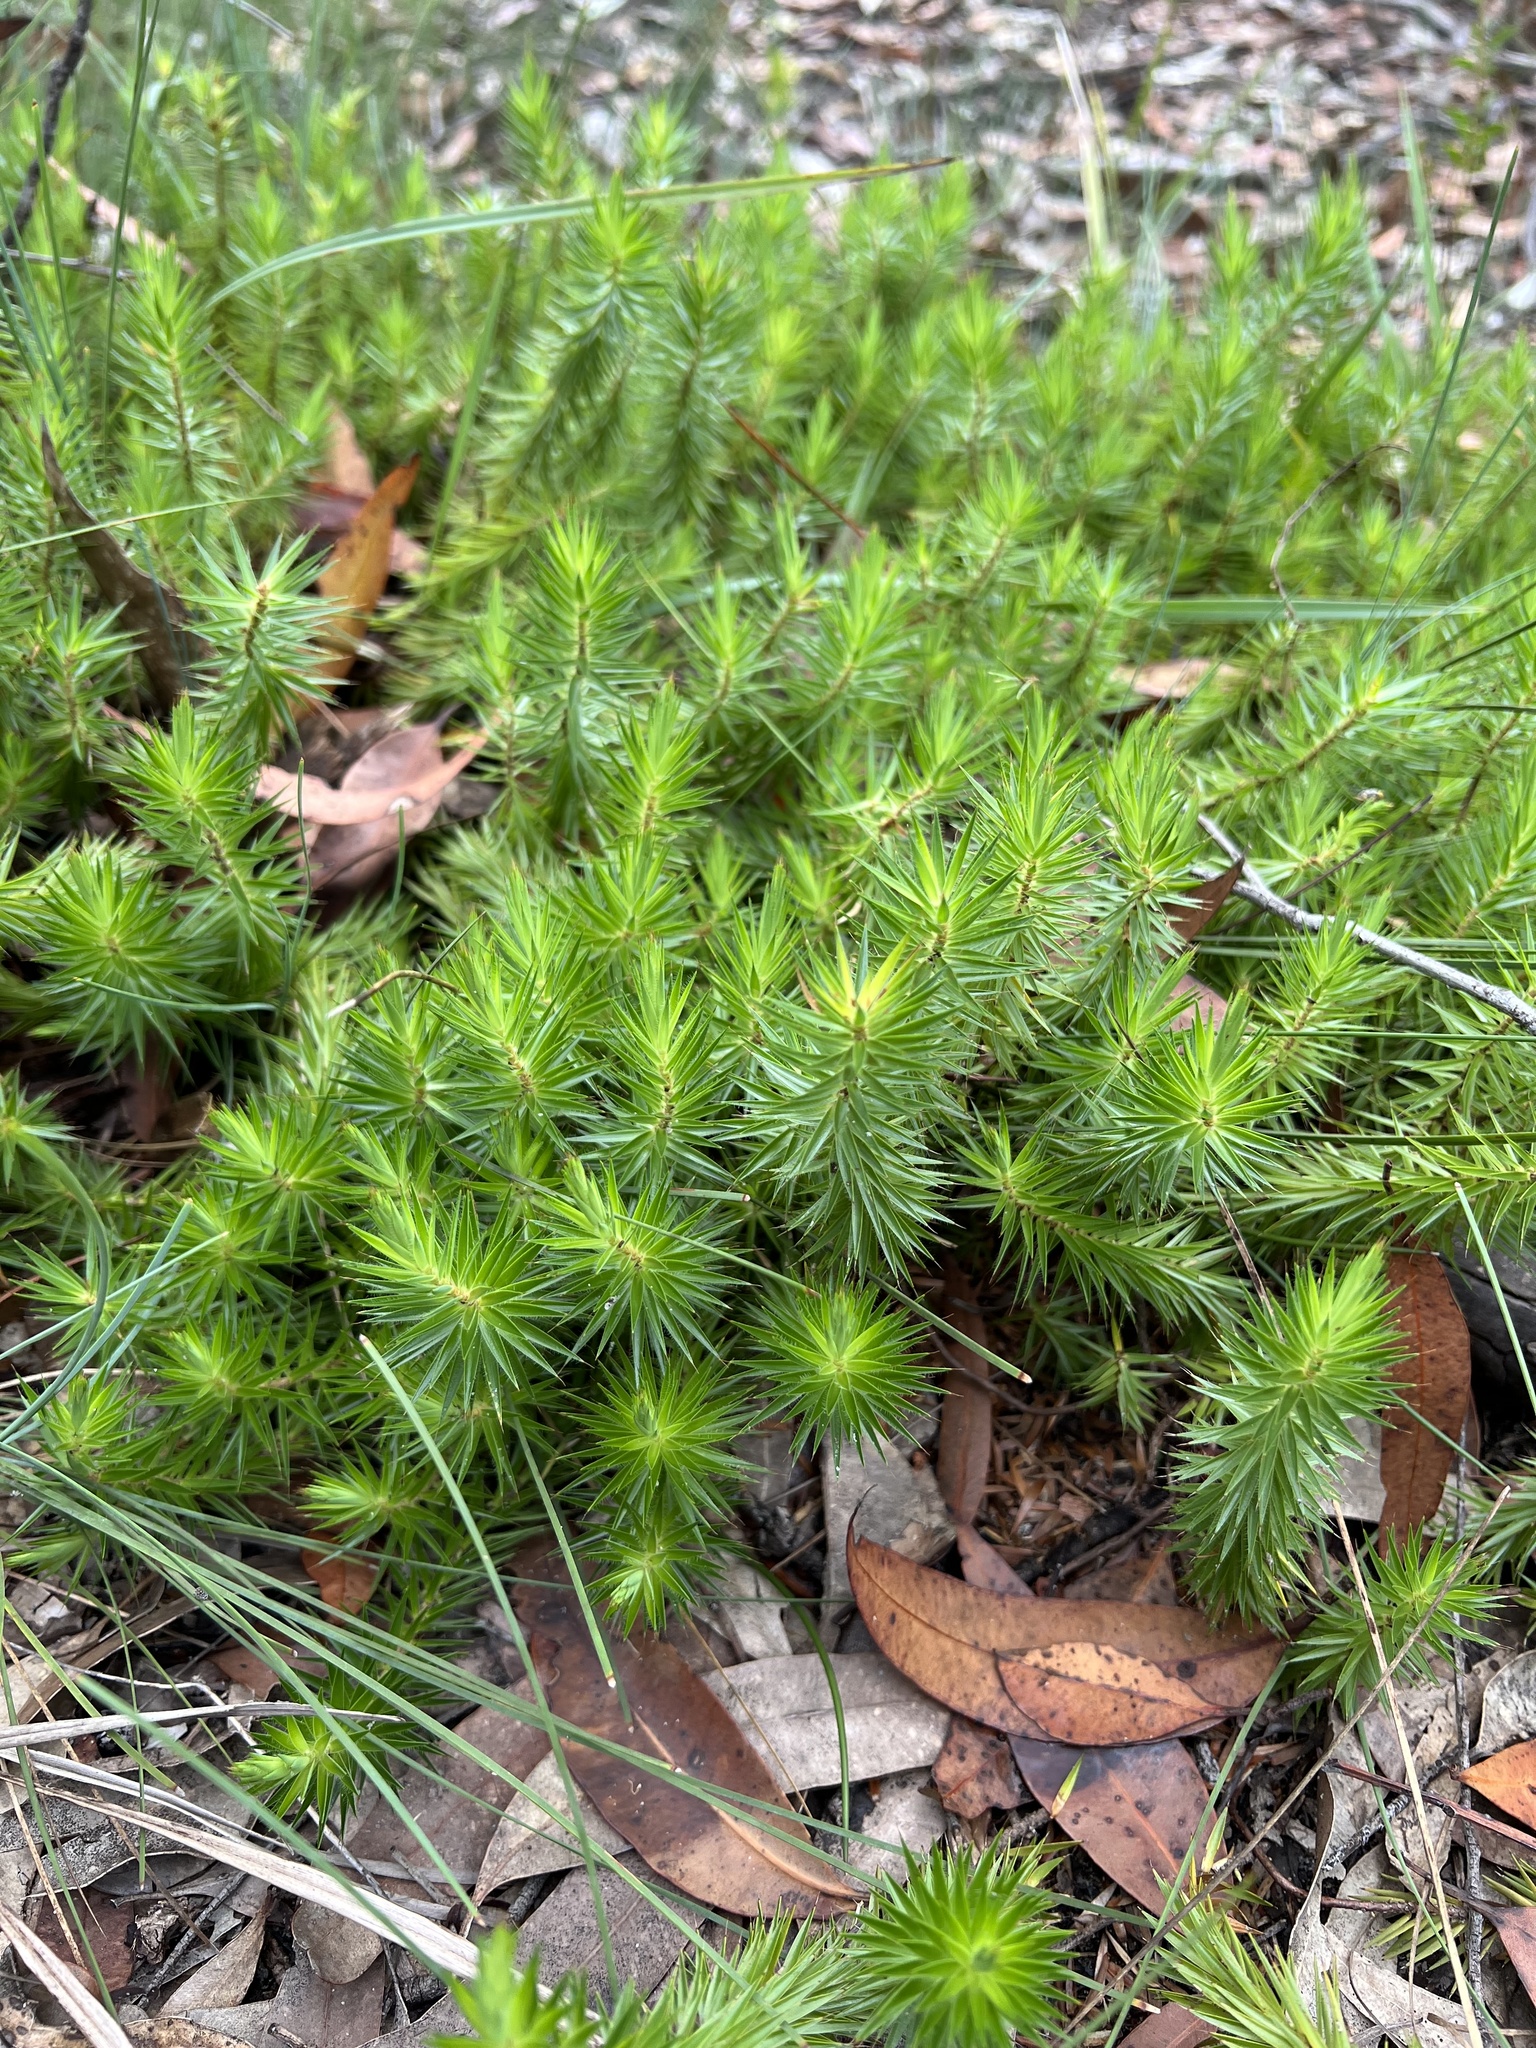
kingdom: Plantae
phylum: Tracheophyta
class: Magnoliopsida
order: Ericales
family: Ericaceae
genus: Melichrus
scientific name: Melichrus procumbens
